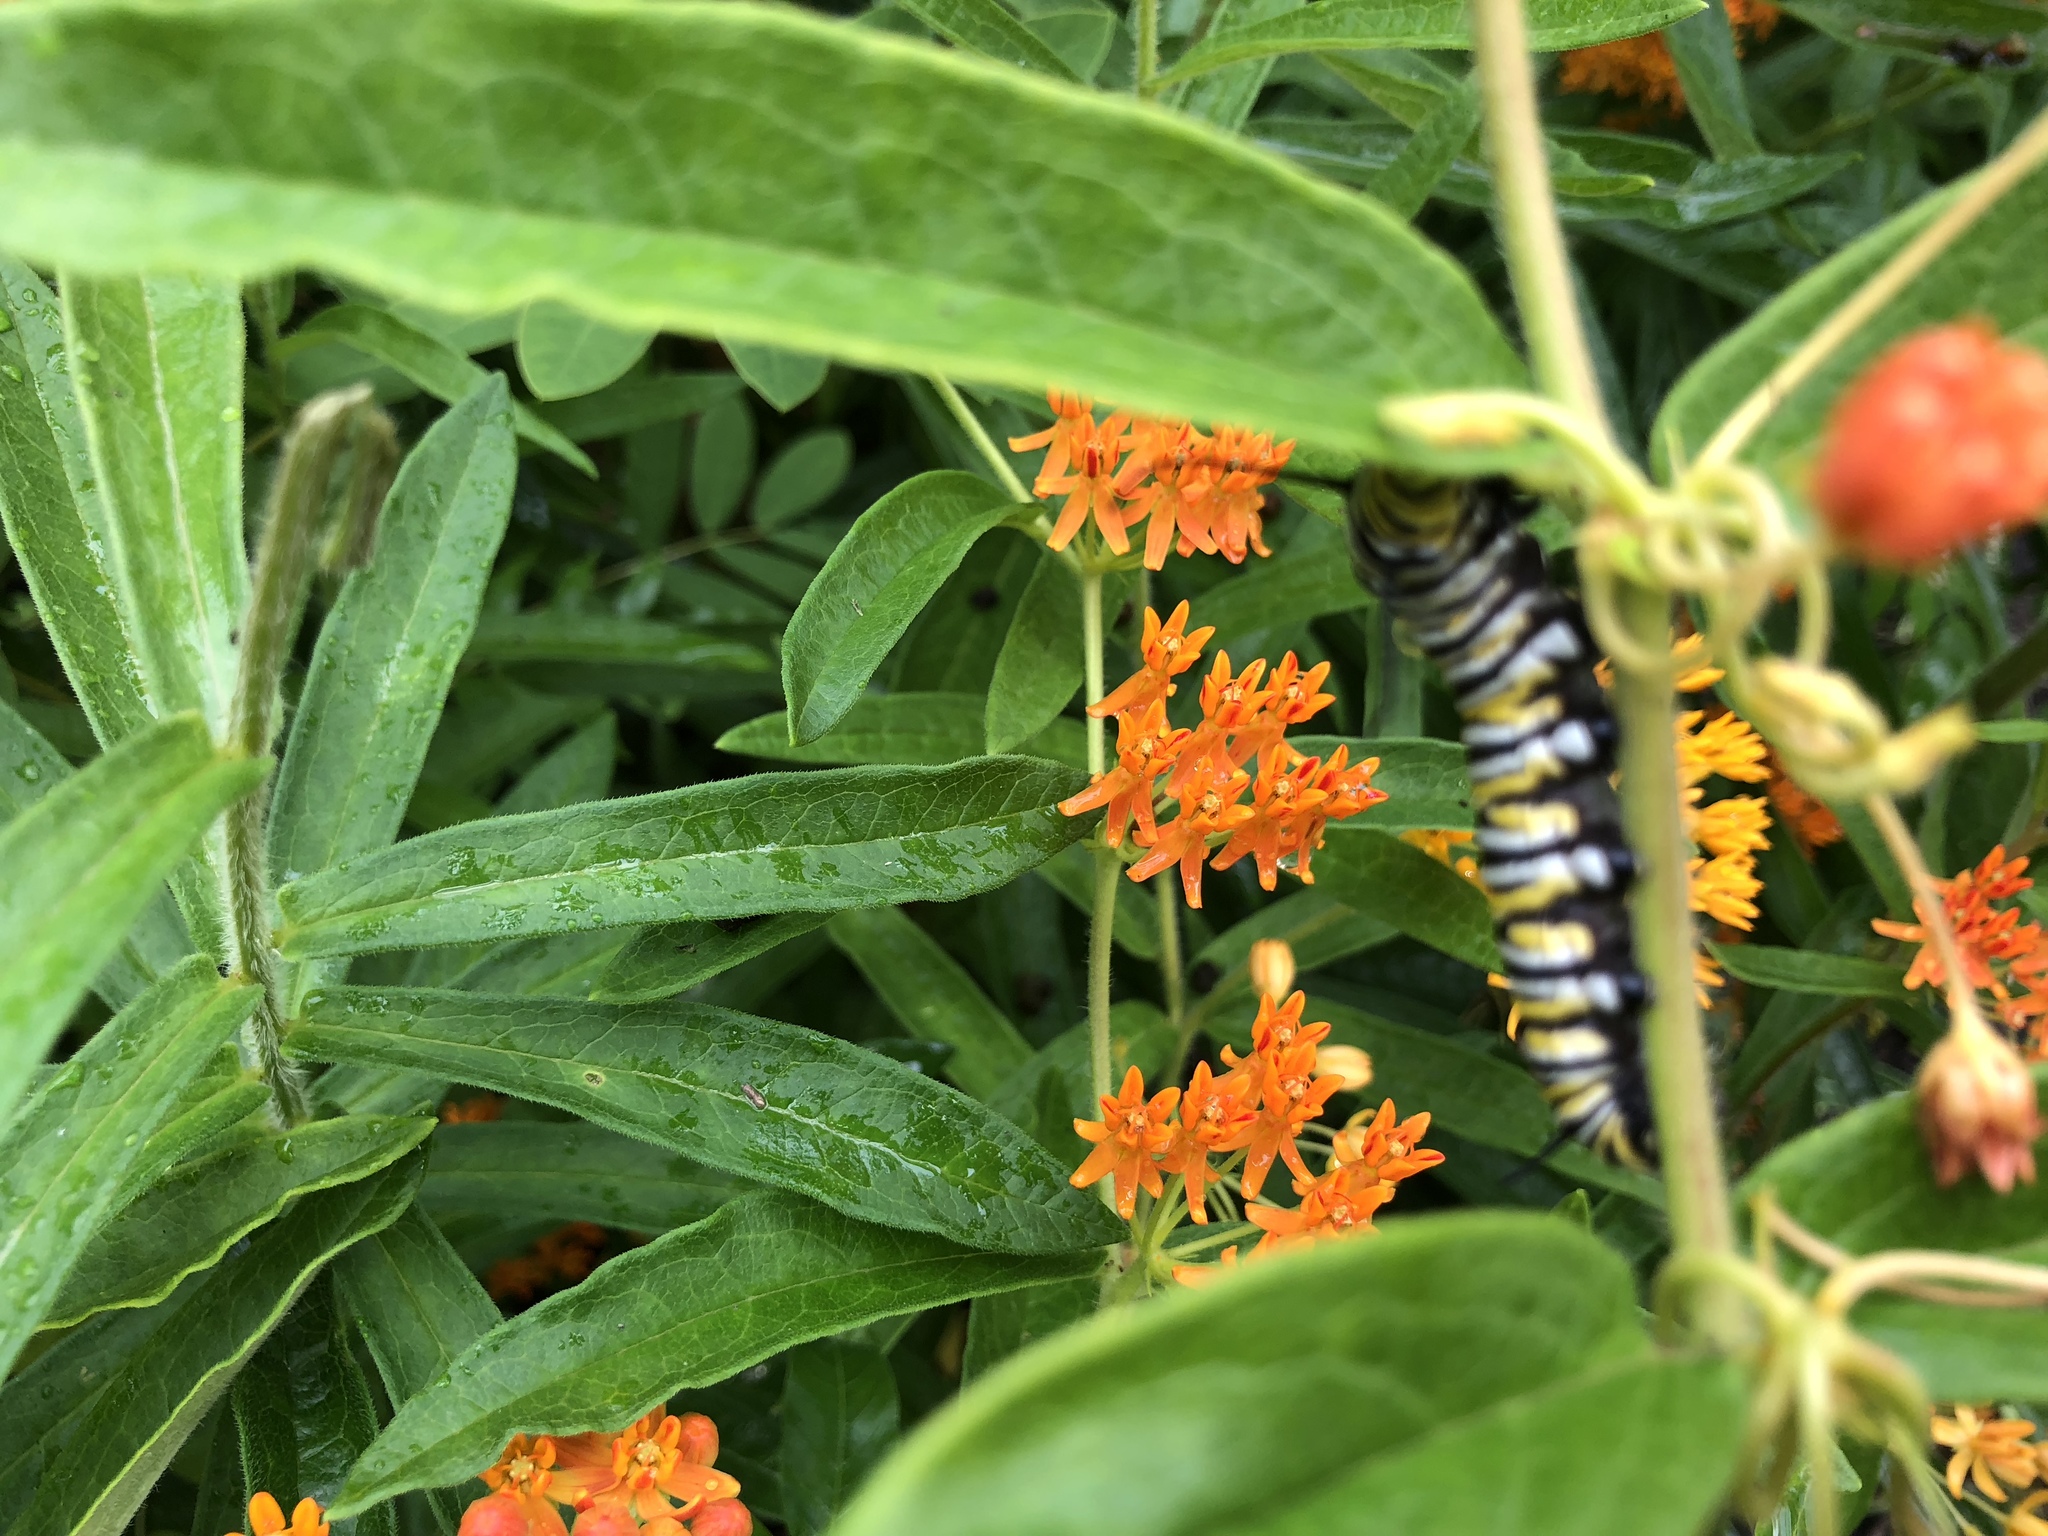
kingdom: Animalia
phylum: Arthropoda
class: Insecta
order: Lepidoptera
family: Nymphalidae
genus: Danaus
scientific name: Danaus plexippus
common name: Monarch
